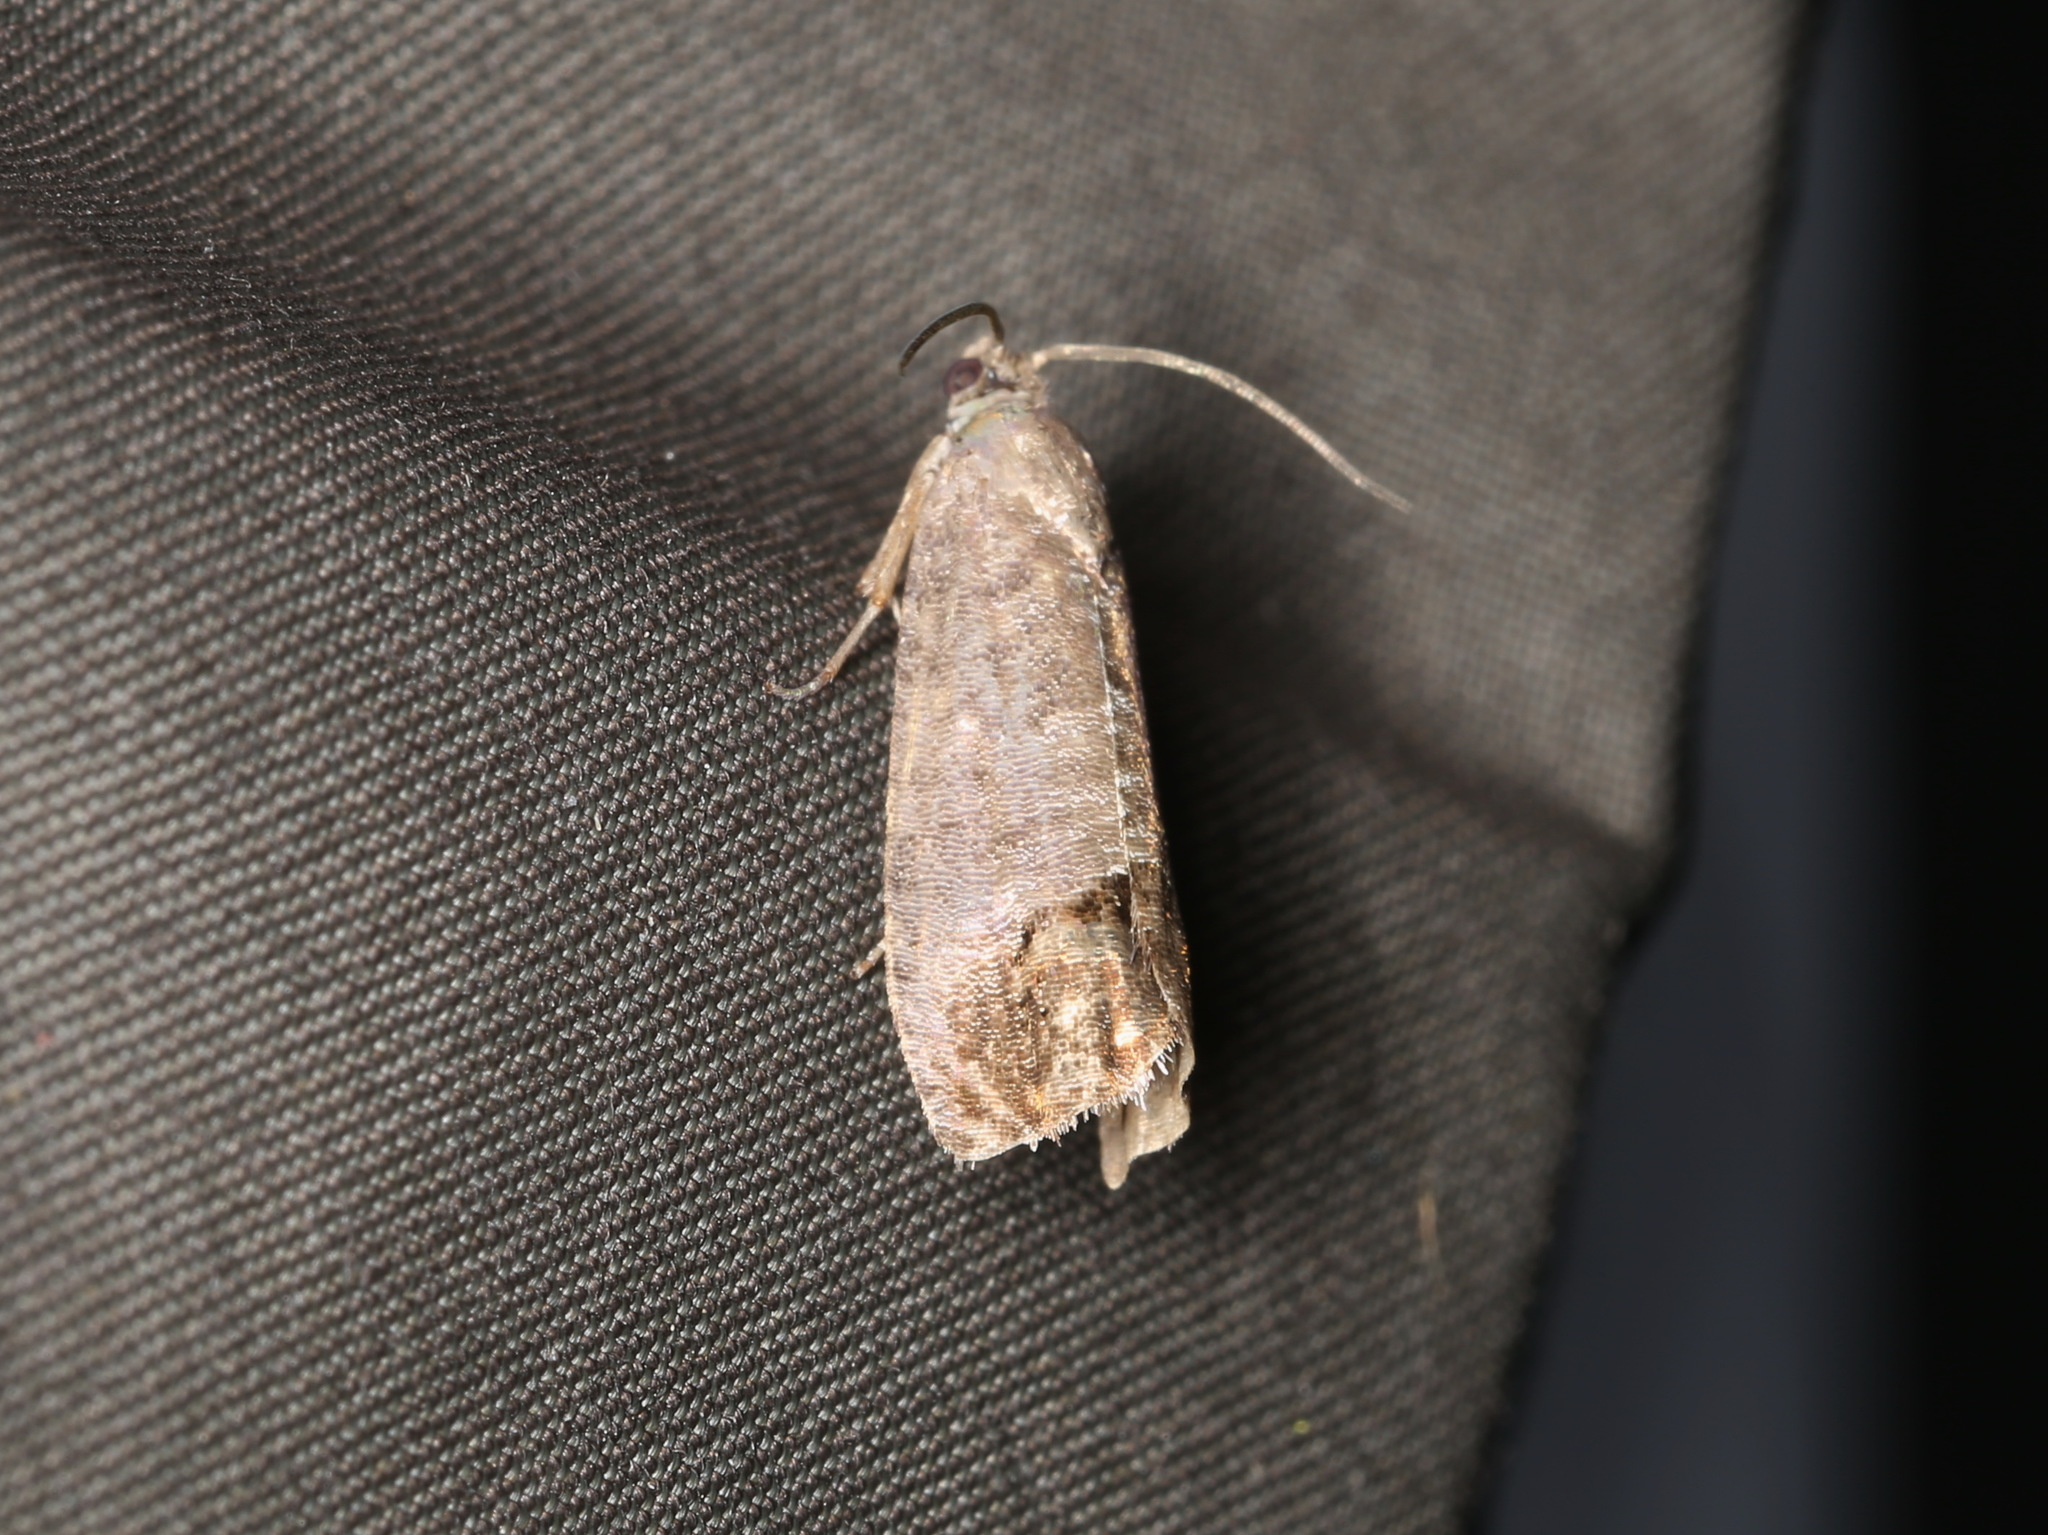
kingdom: Animalia
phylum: Arthropoda
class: Insecta
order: Lepidoptera
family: Tortricidae
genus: Cydia
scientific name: Cydia splendana
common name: De: kastanienwickler, eichenwickler es: oruga de la castaña fr: carpocapse des châtaignes it: cidia o tortrice tardiva delle castagne pt: bichado das castanhas gb: acorn moth, chestnut fruit tortrix
